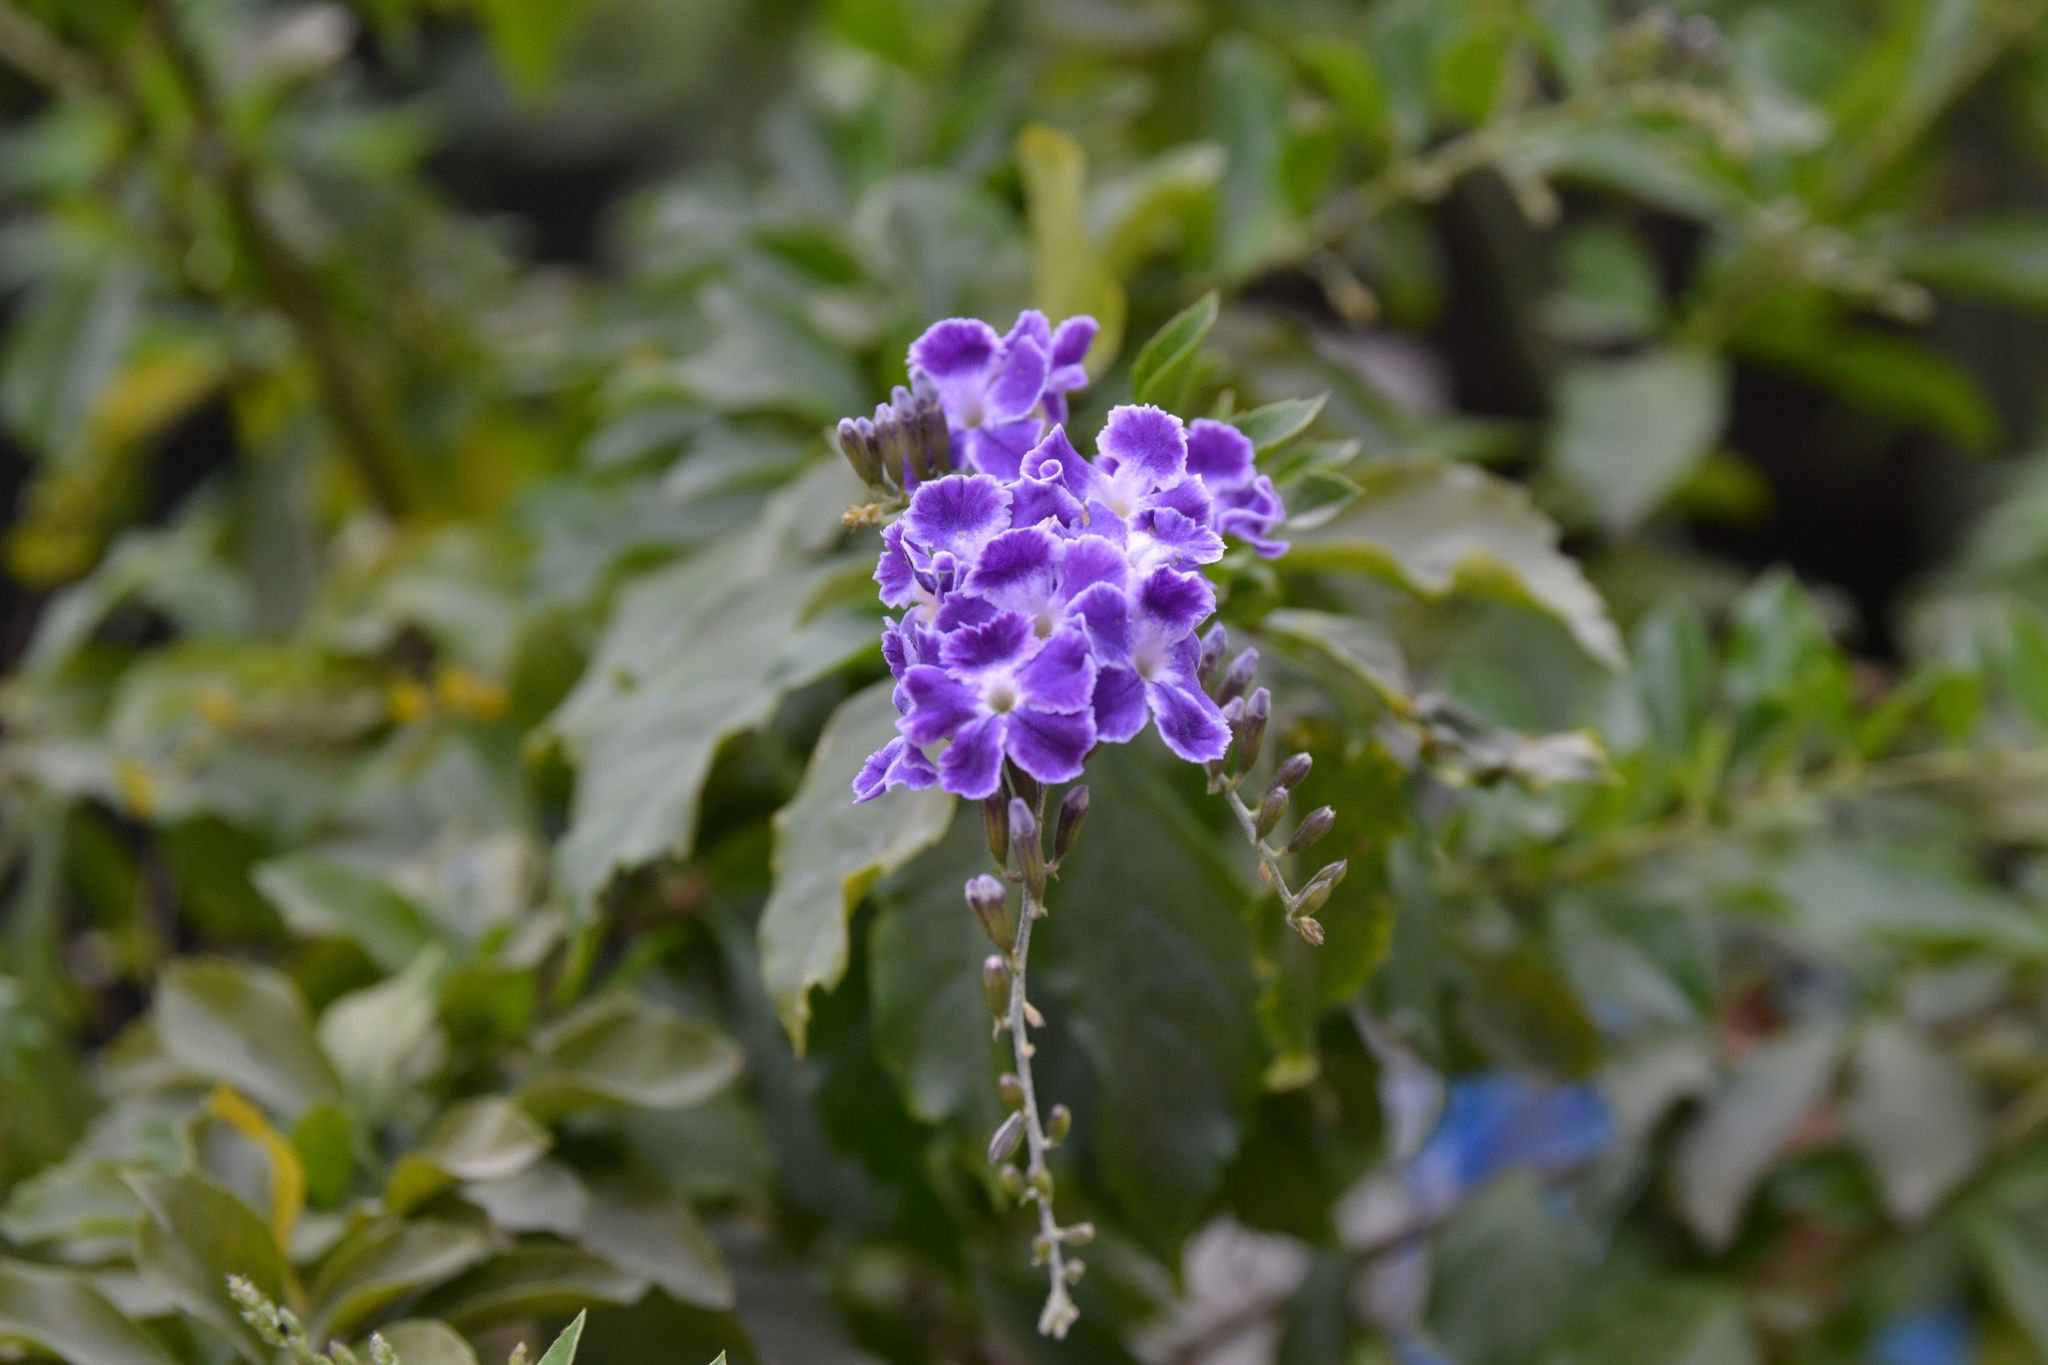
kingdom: Plantae
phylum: Tracheophyta
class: Magnoliopsida
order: Lamiales
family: Verbenaceae
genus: Duranta
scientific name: Duranta erecta
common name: Golden dewdrops
